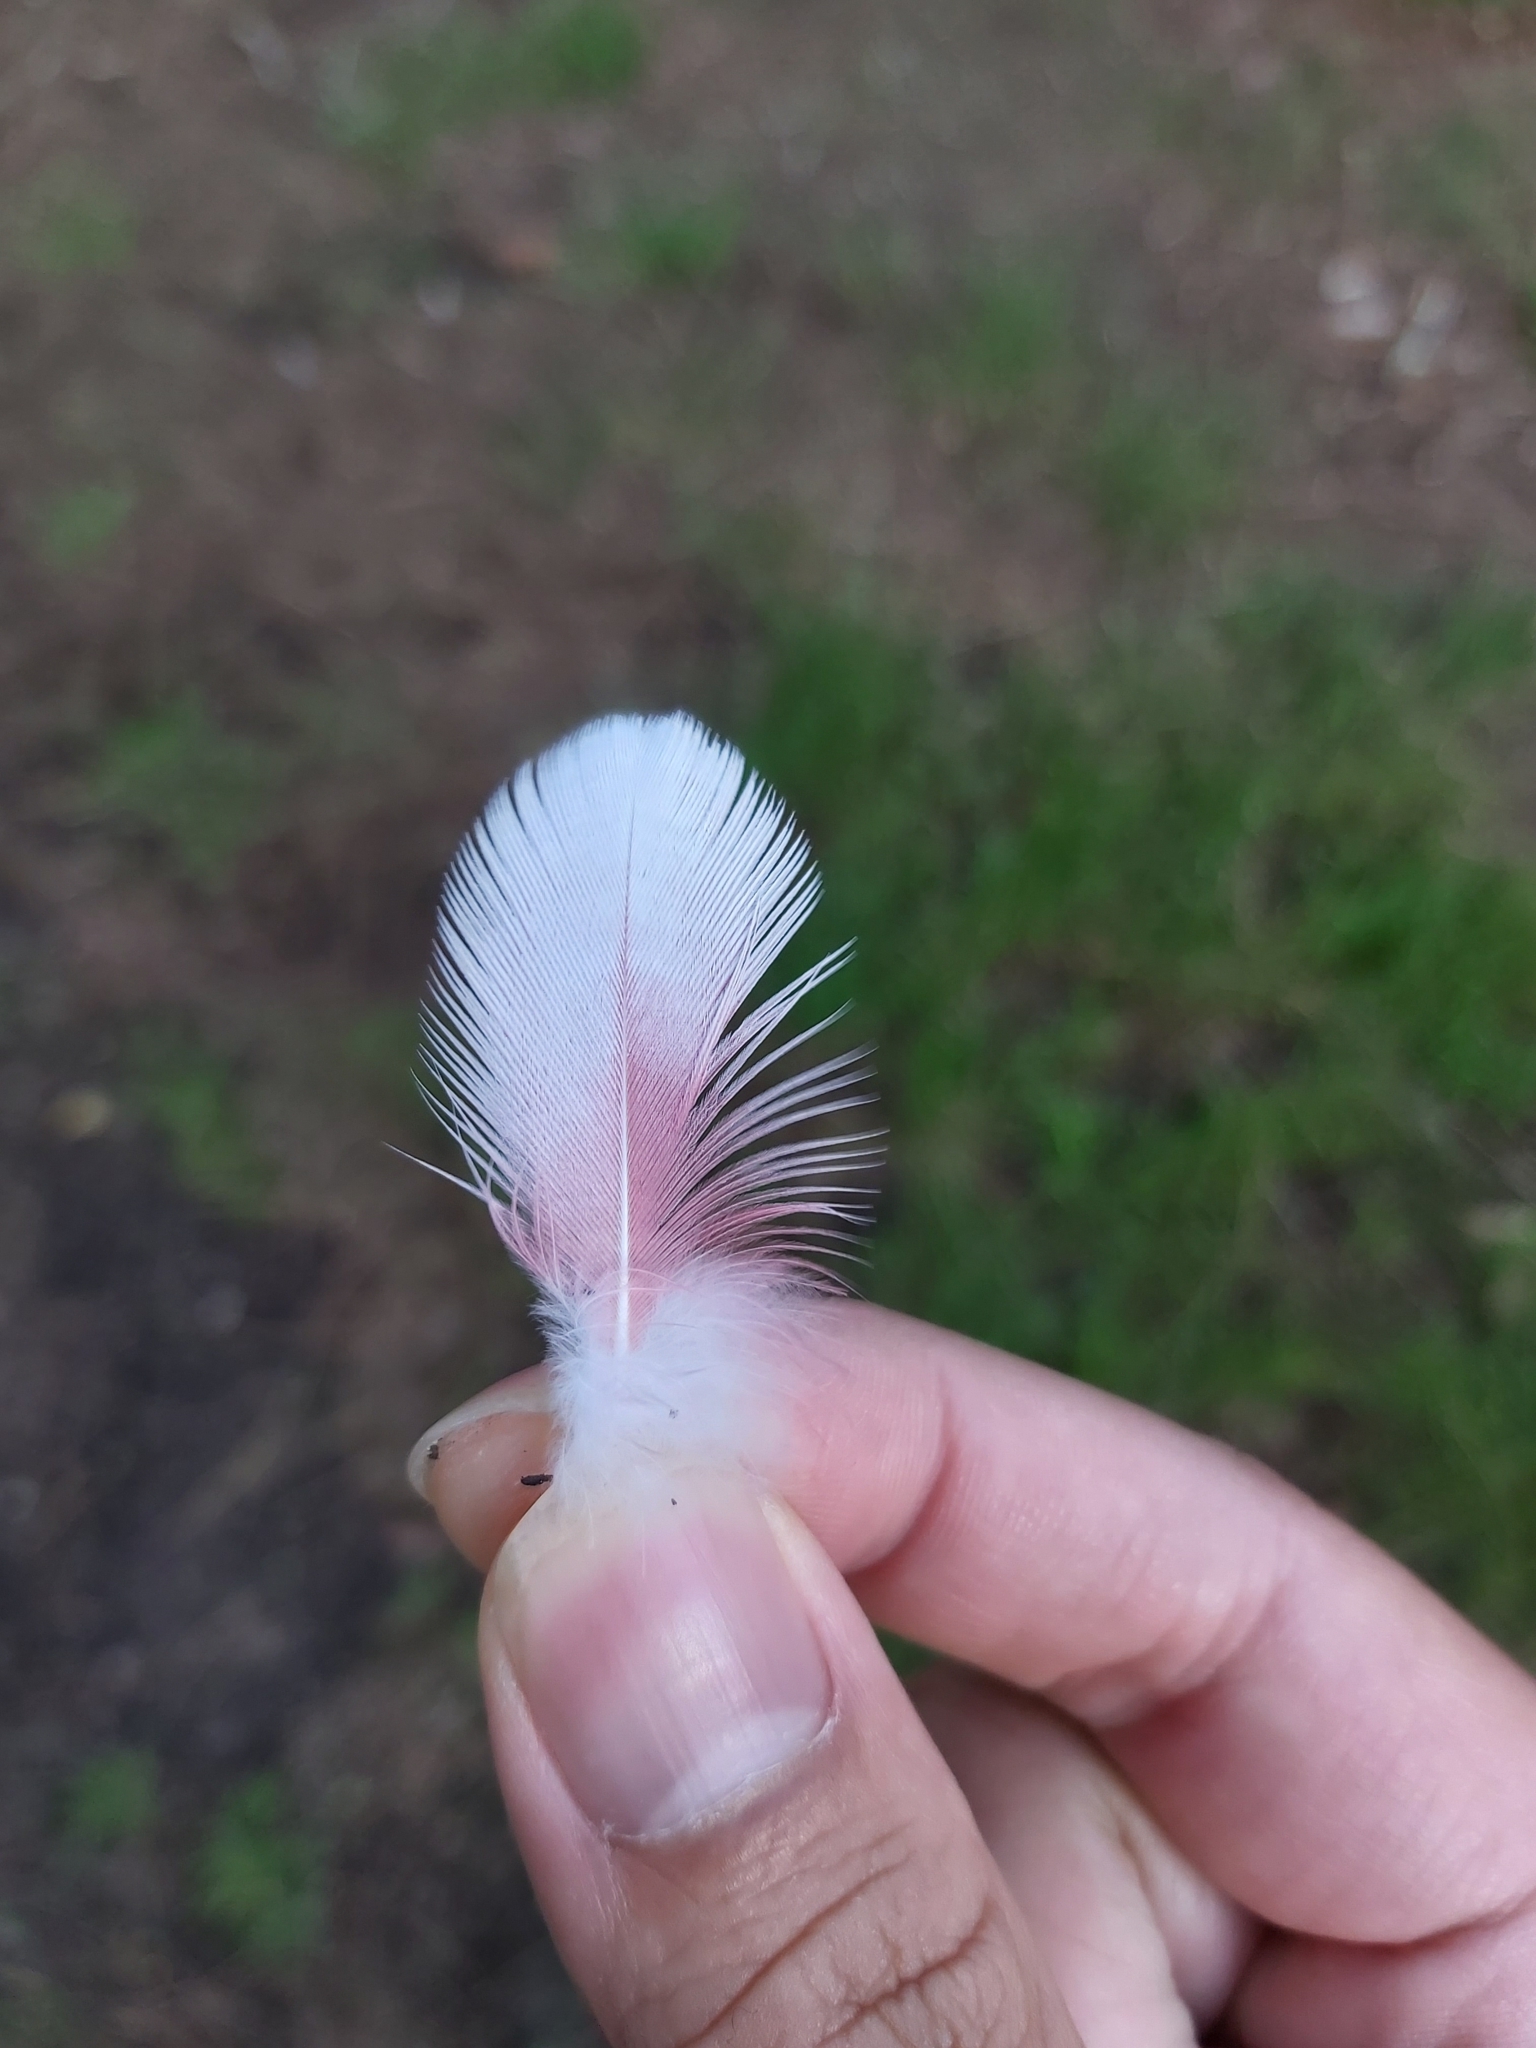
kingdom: Animalia
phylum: Chordata
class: Aves
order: Psittaciformes
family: Psittacidae
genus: Eolophus
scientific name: Eolophus roseicapilla
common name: Galah
